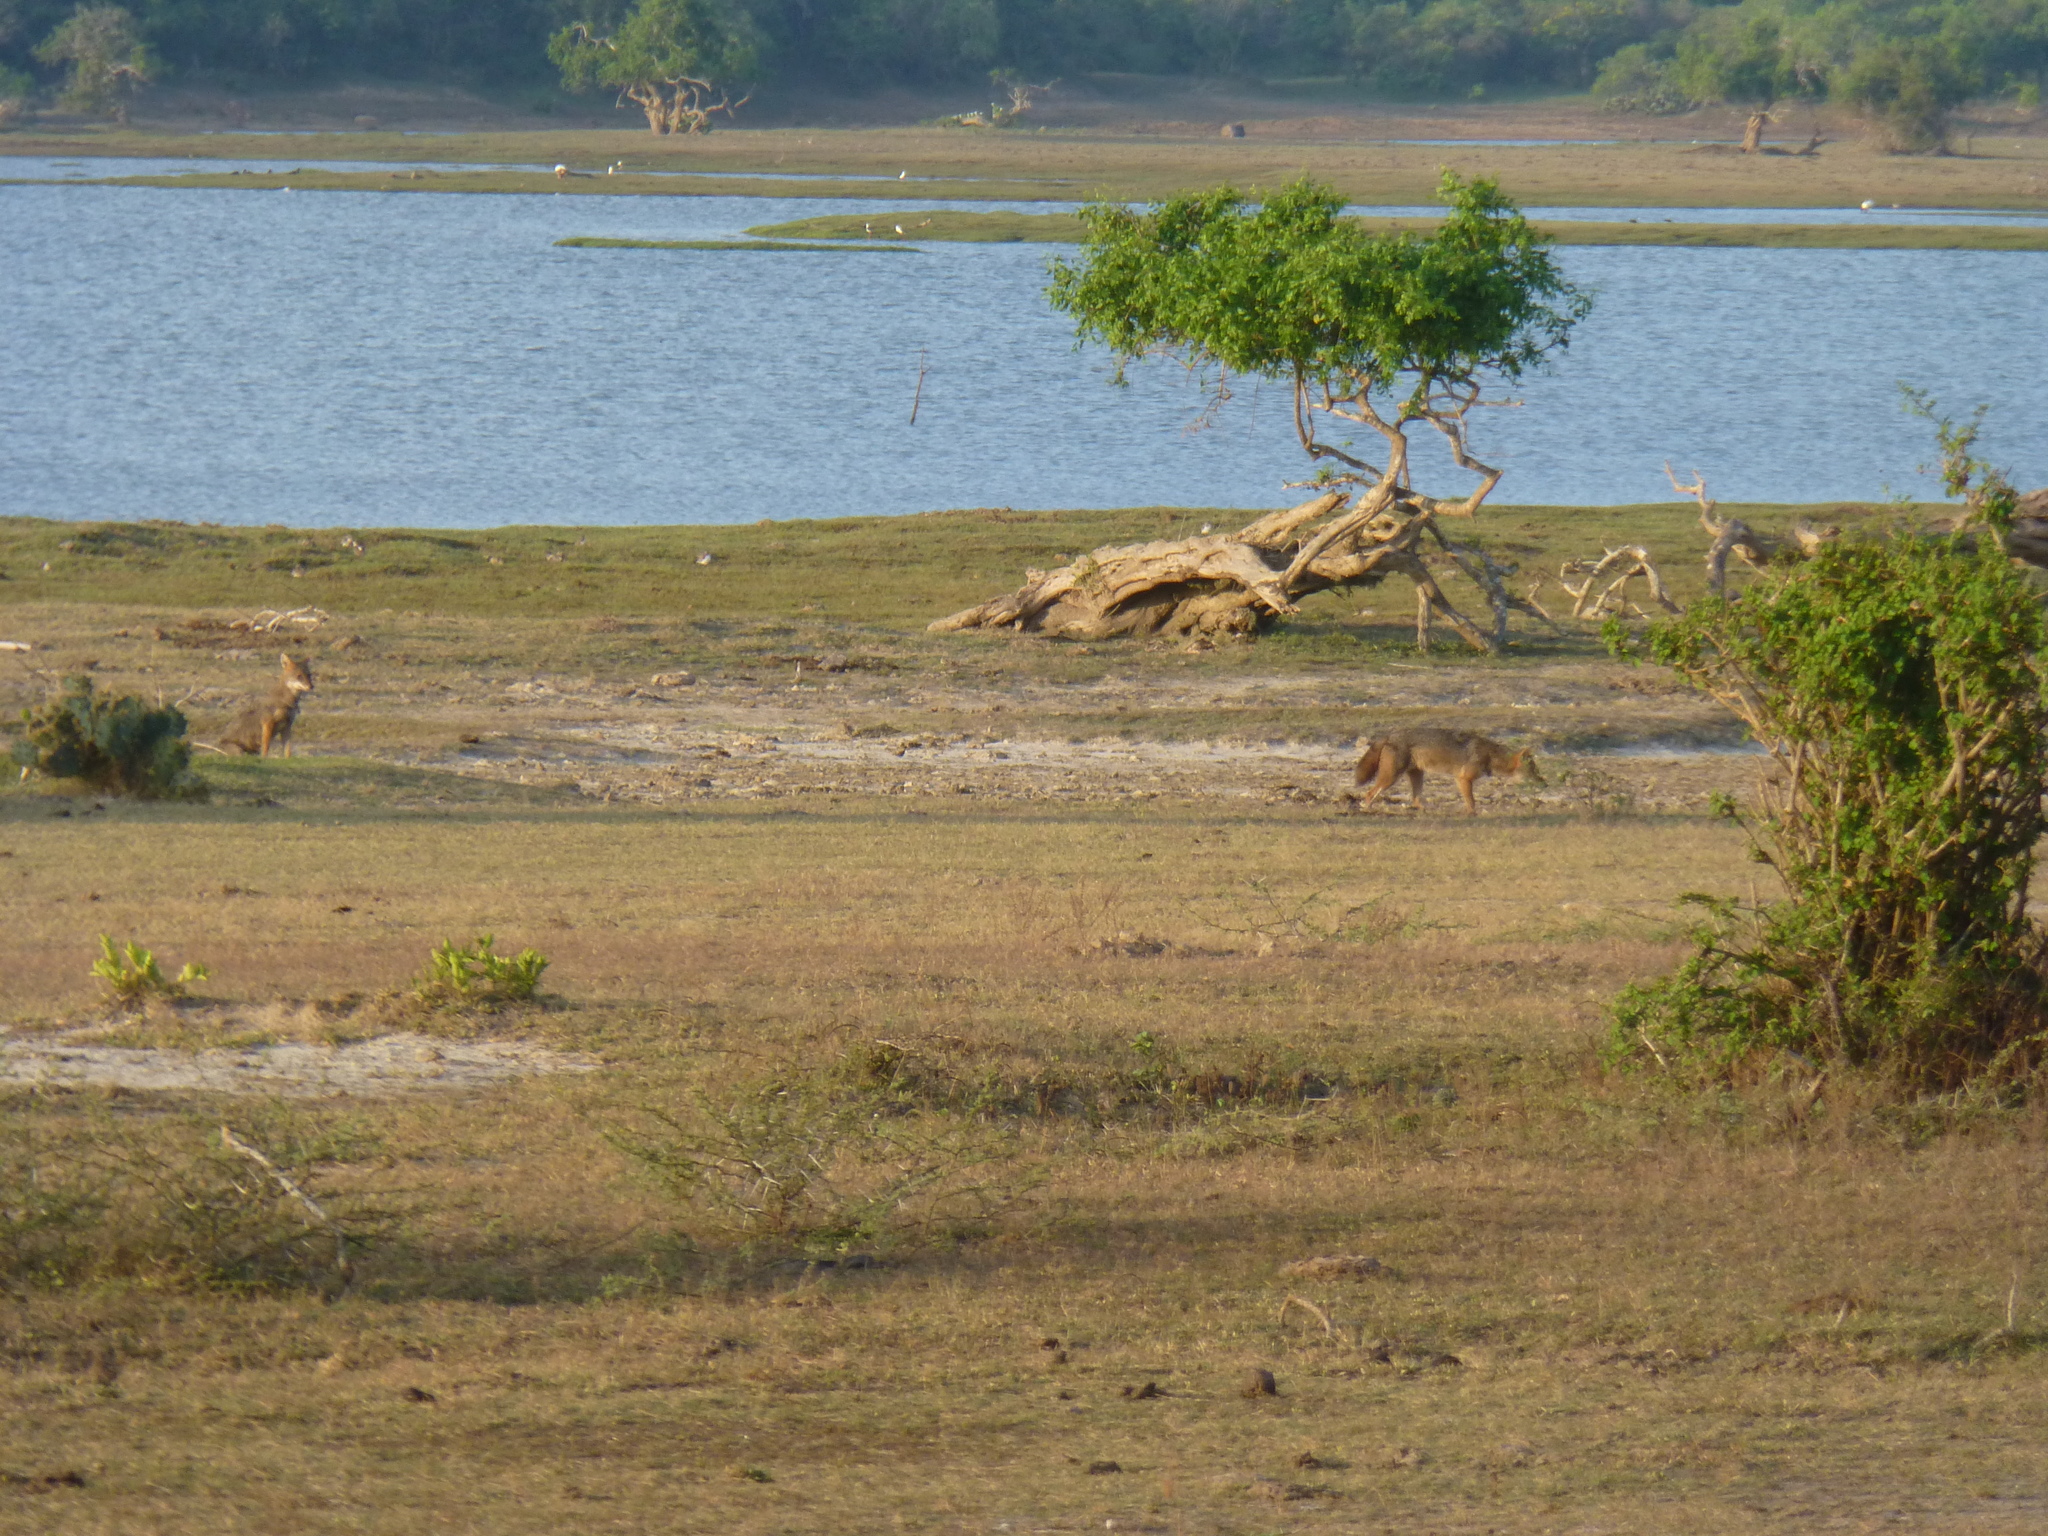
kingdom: Animalia
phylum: Chordata
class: Mammalia
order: Carnivora
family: Canidae
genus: Canis
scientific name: Canis aureus
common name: Golden jackal
